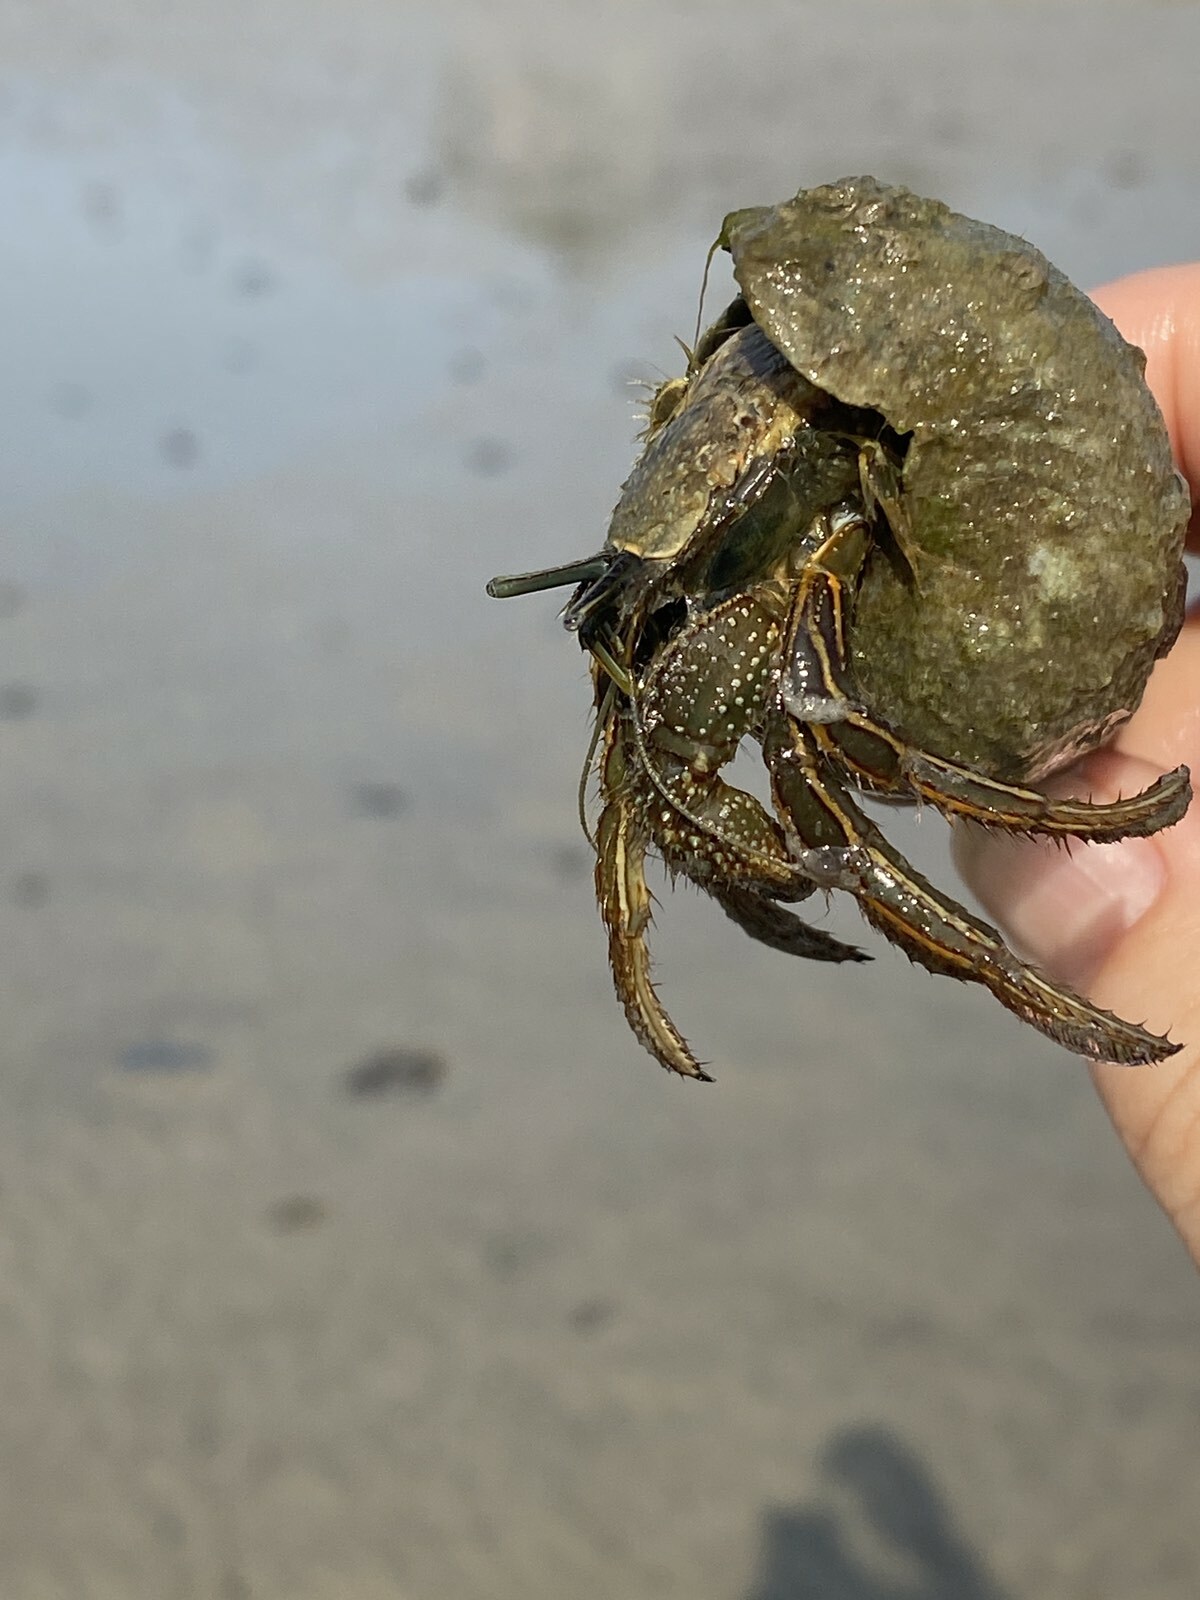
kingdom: Animalia
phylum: Arthropoda
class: Malacostraca
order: Decapoda
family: Diogenidae
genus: Clibanarius
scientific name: Clibanarius infraspinatus
